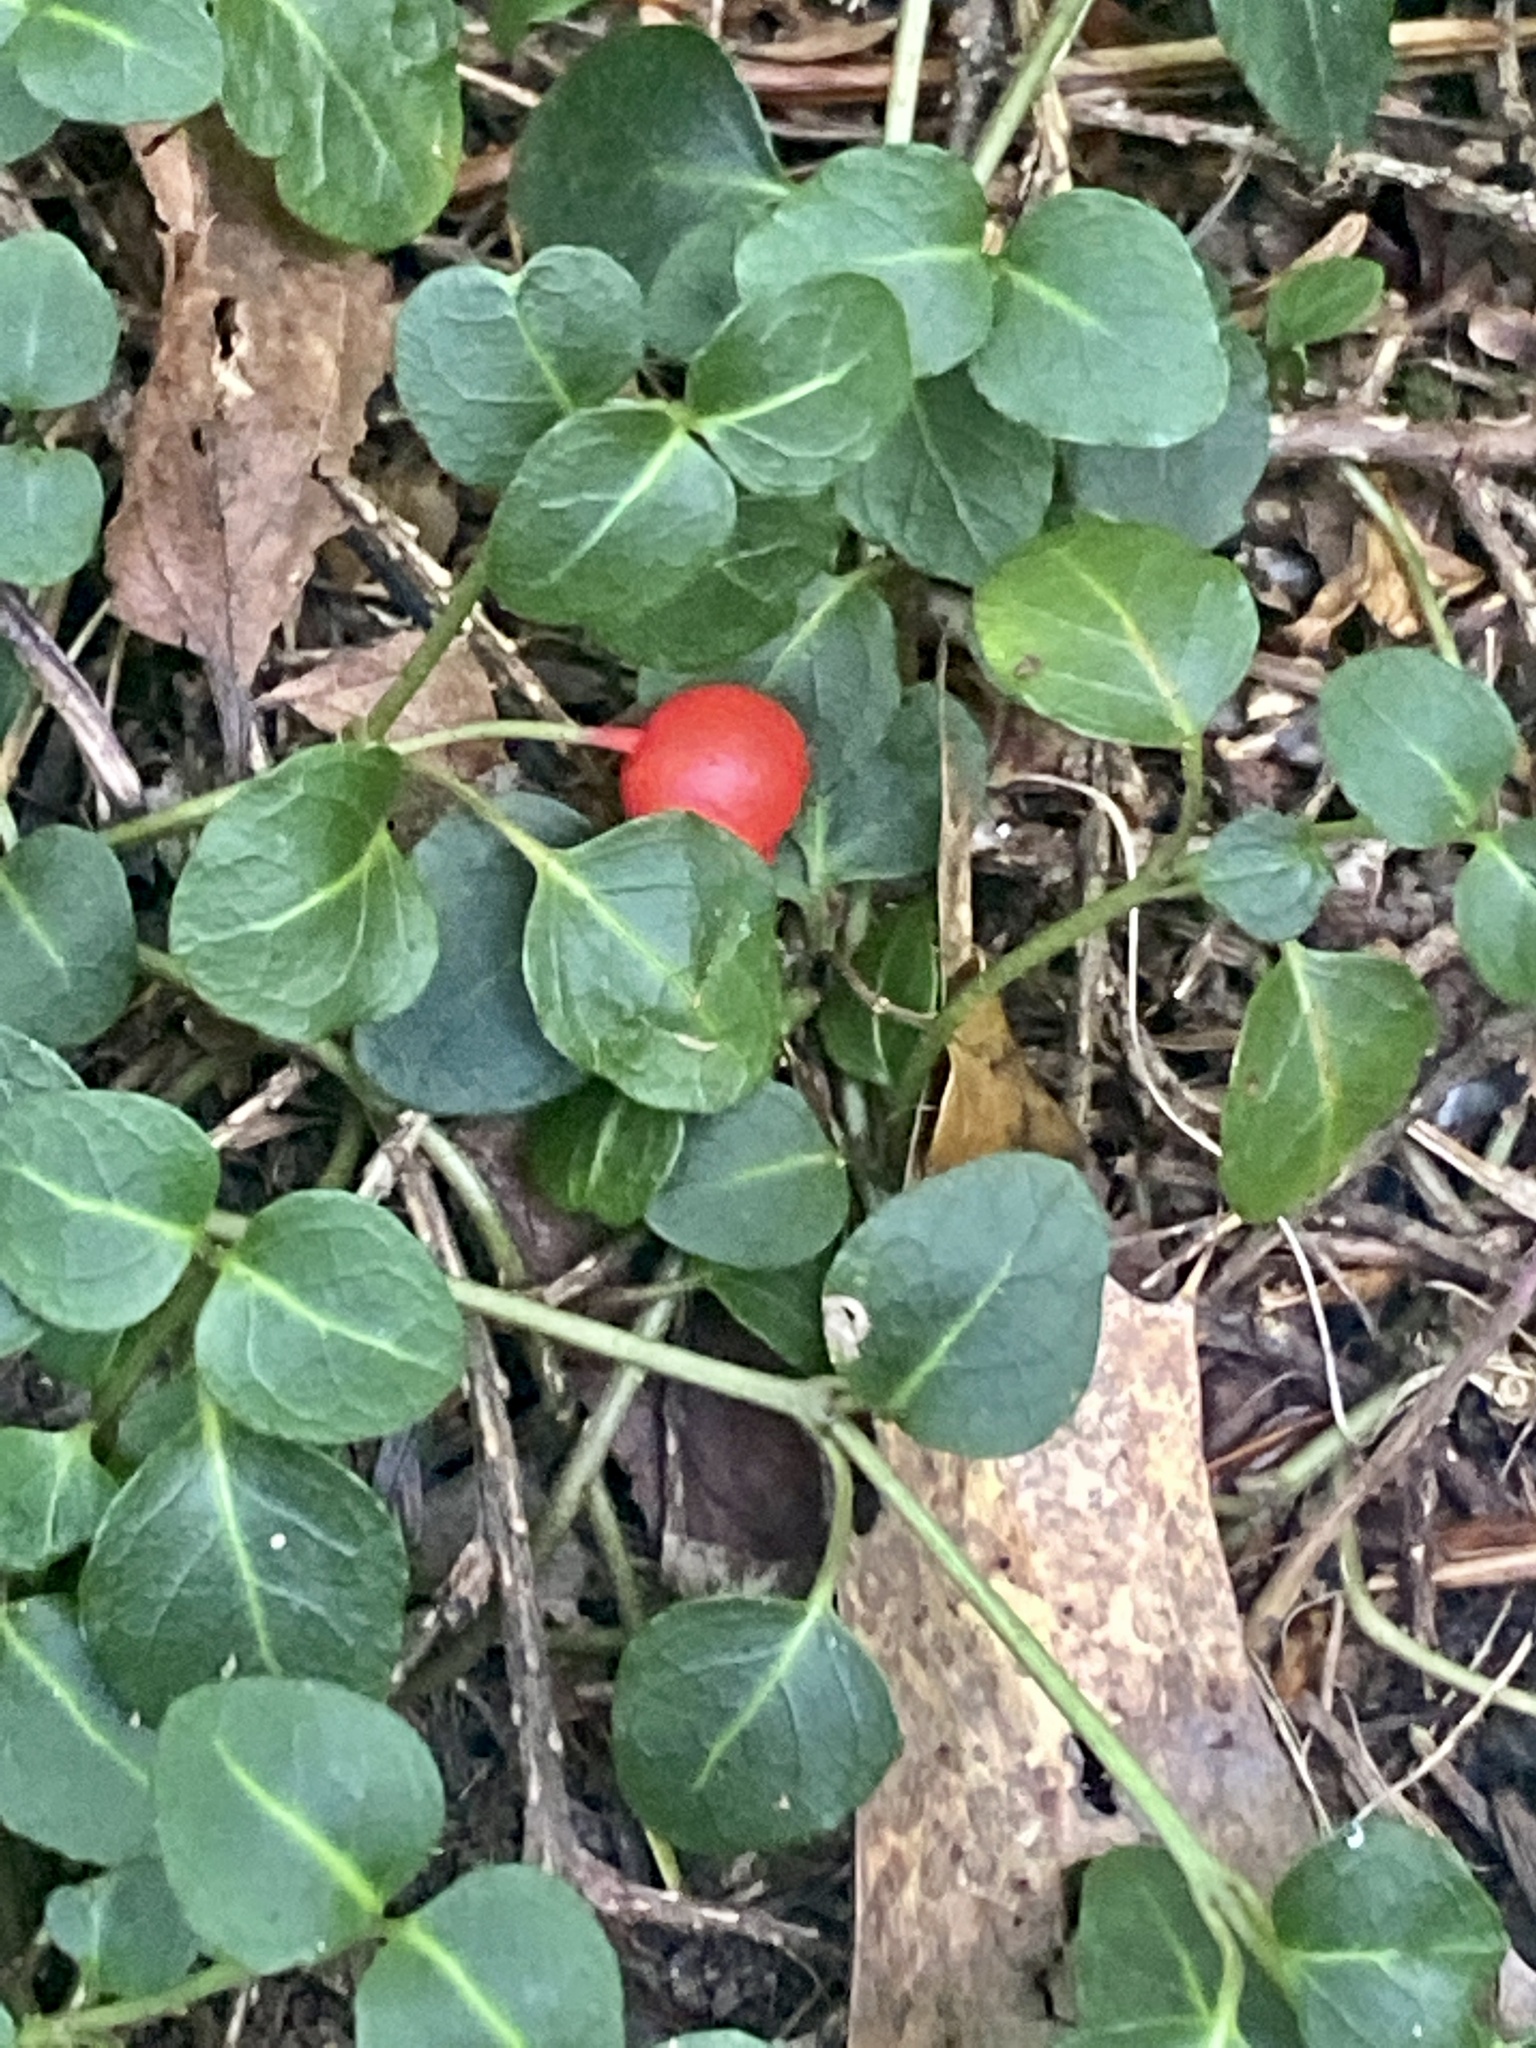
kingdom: Plantae
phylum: Tracheophyta
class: Magnoliopsida
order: Gentianales
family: Rubiaceae
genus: Mitchella
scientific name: Mitchella repens
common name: Partridge-berry
